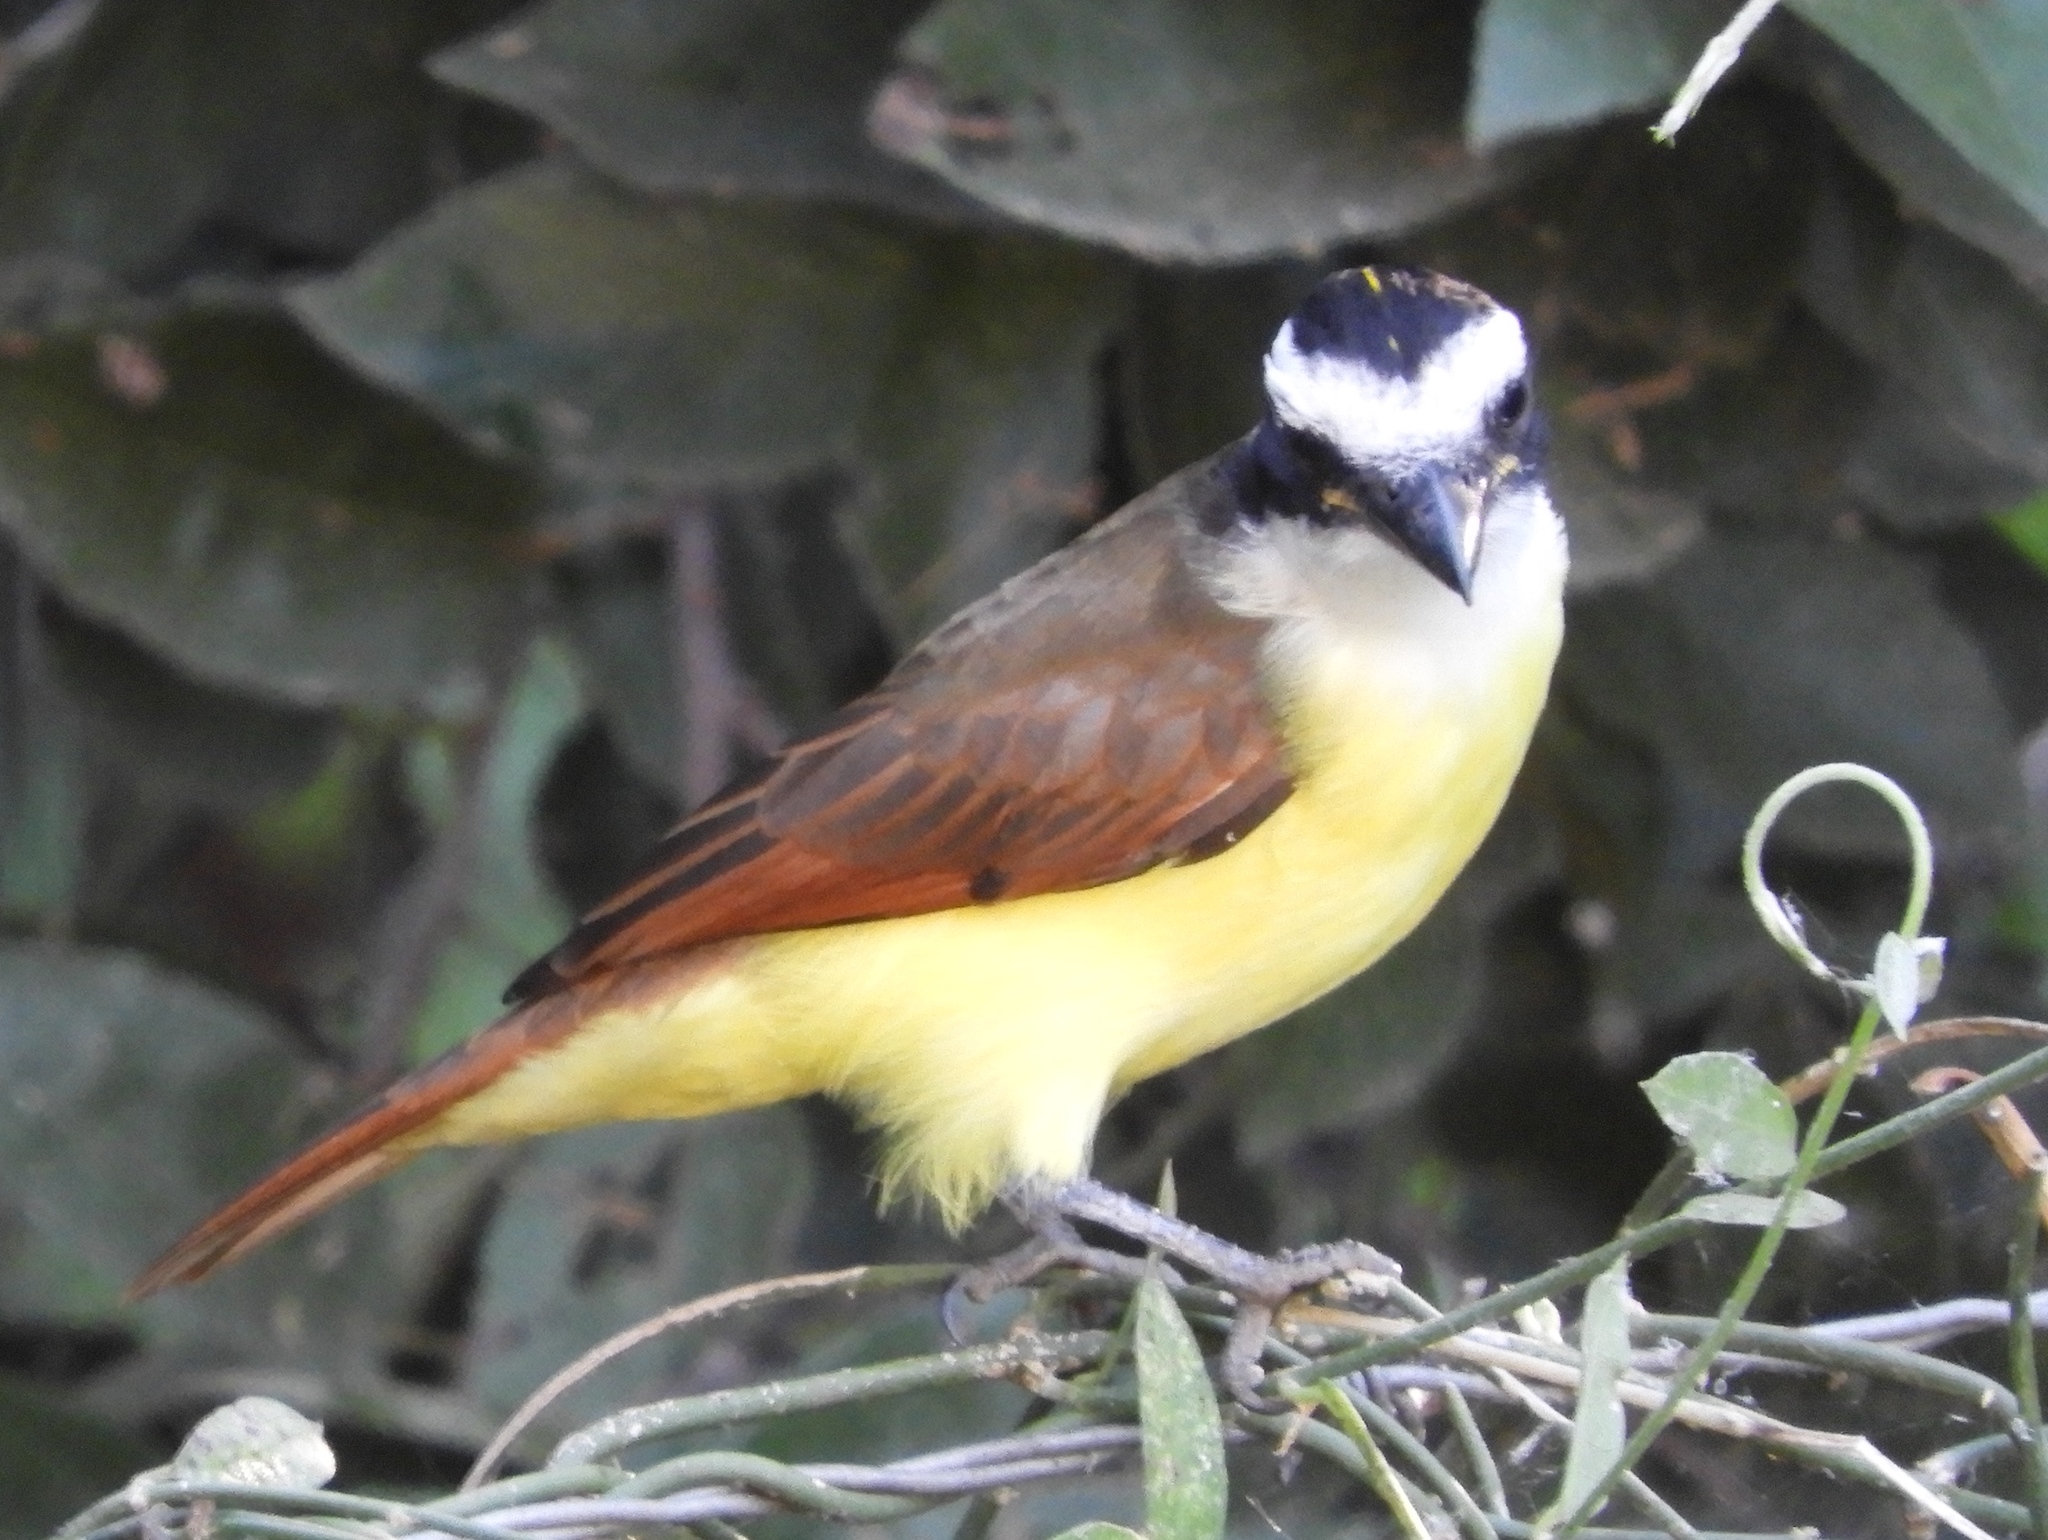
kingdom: Animalia
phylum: Chordata
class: Aves
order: Passeriformes
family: Tyrannidae
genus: Pitangus
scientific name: Pitangus sulphuratus
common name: Great kiskadee
